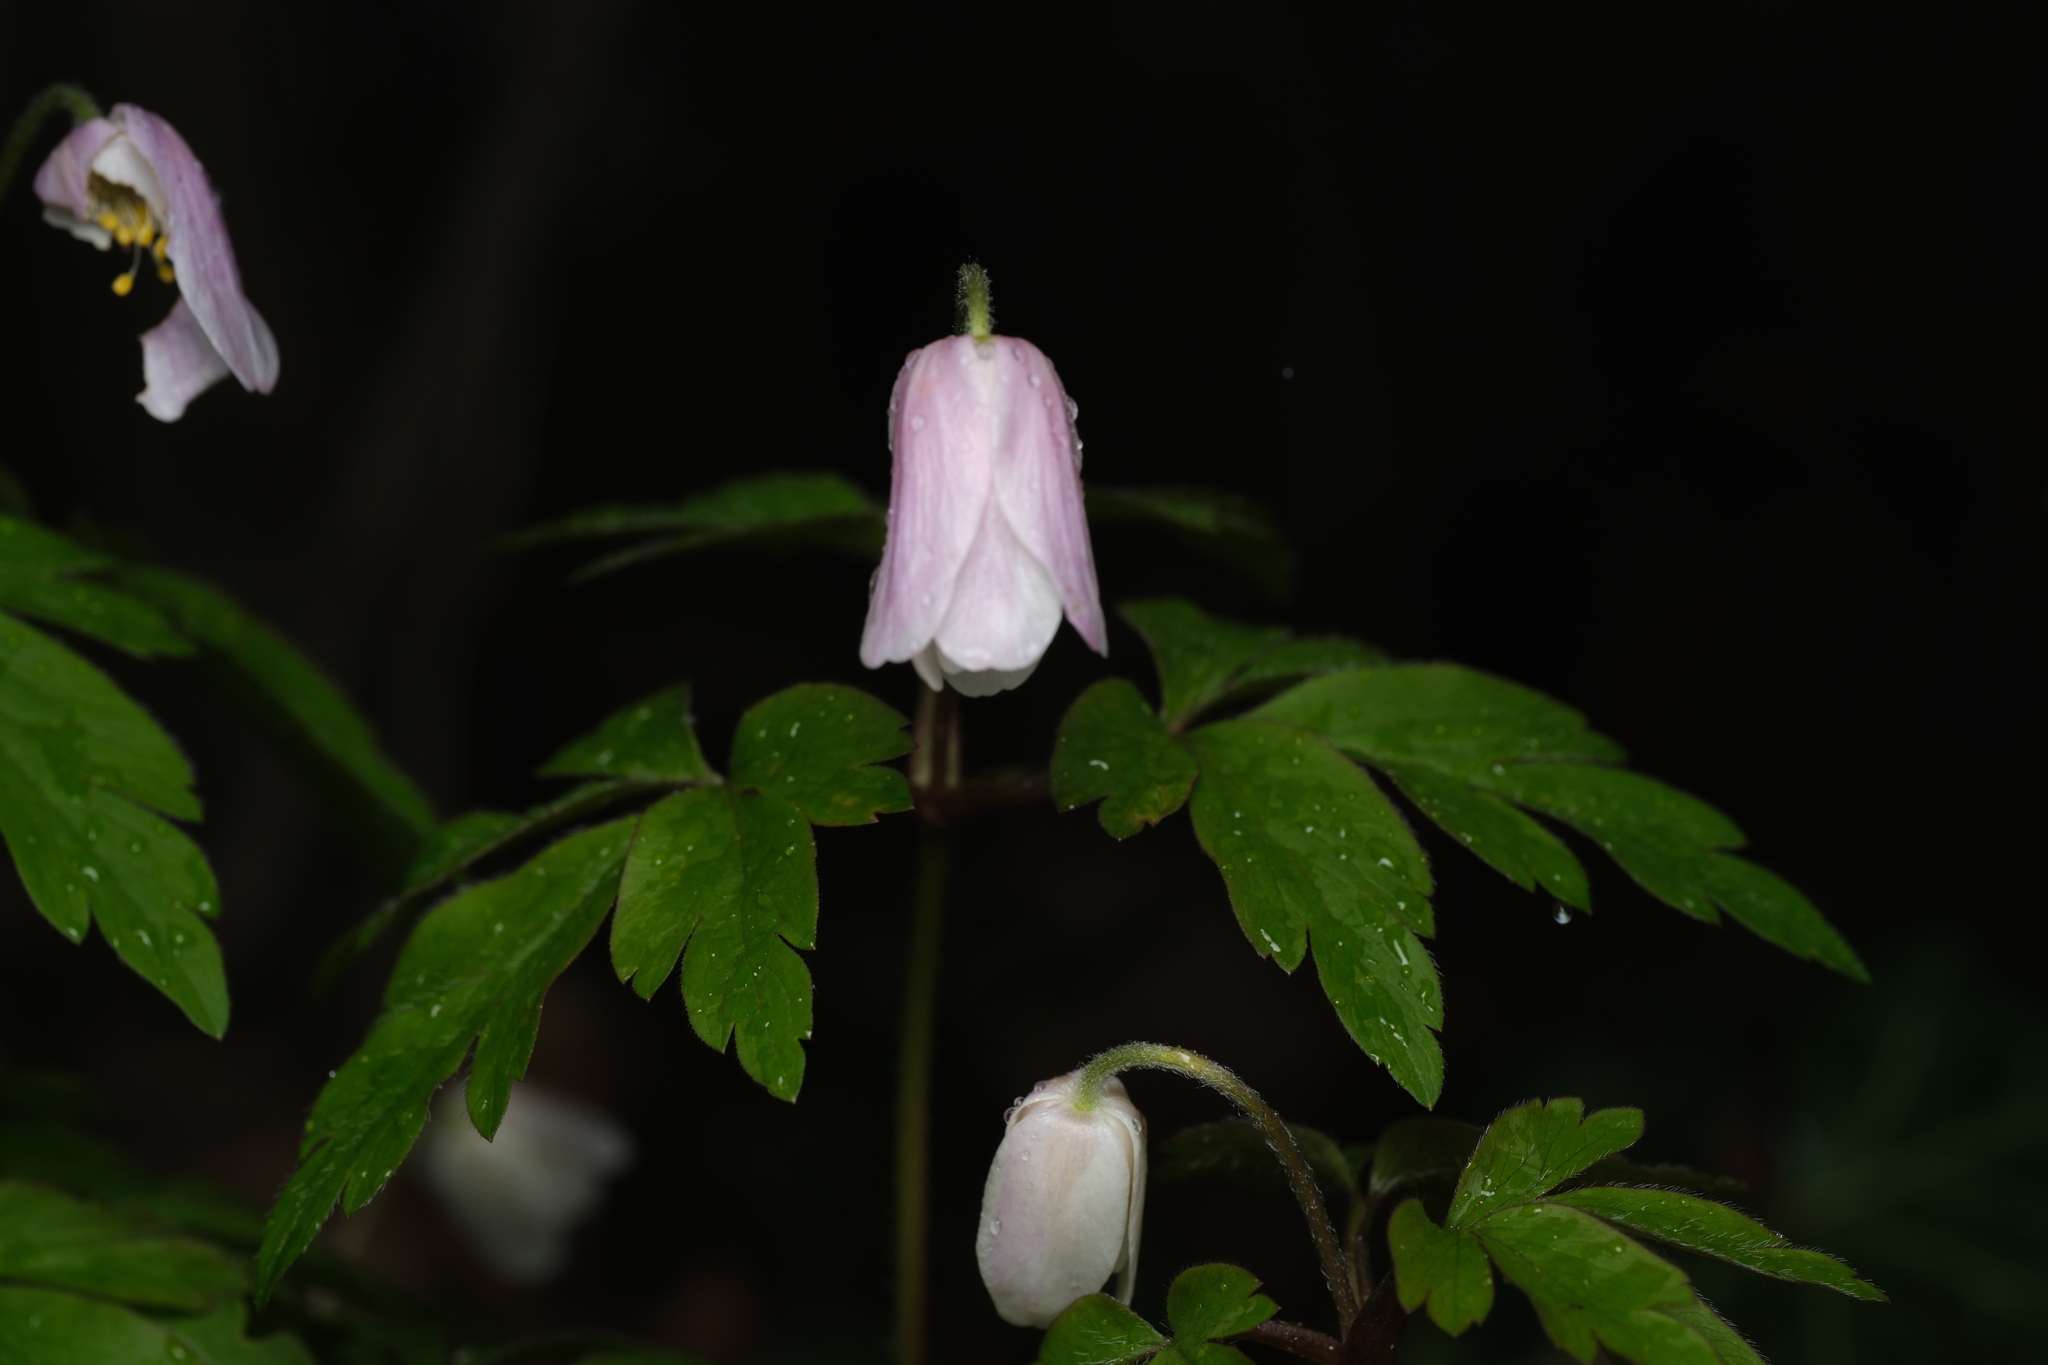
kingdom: Plantae
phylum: Tracheophyta
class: Magnoliopsida
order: Ranunculales
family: Ranunculaceae
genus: Anemone
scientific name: Anemone nemorosa
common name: Wood anemone
